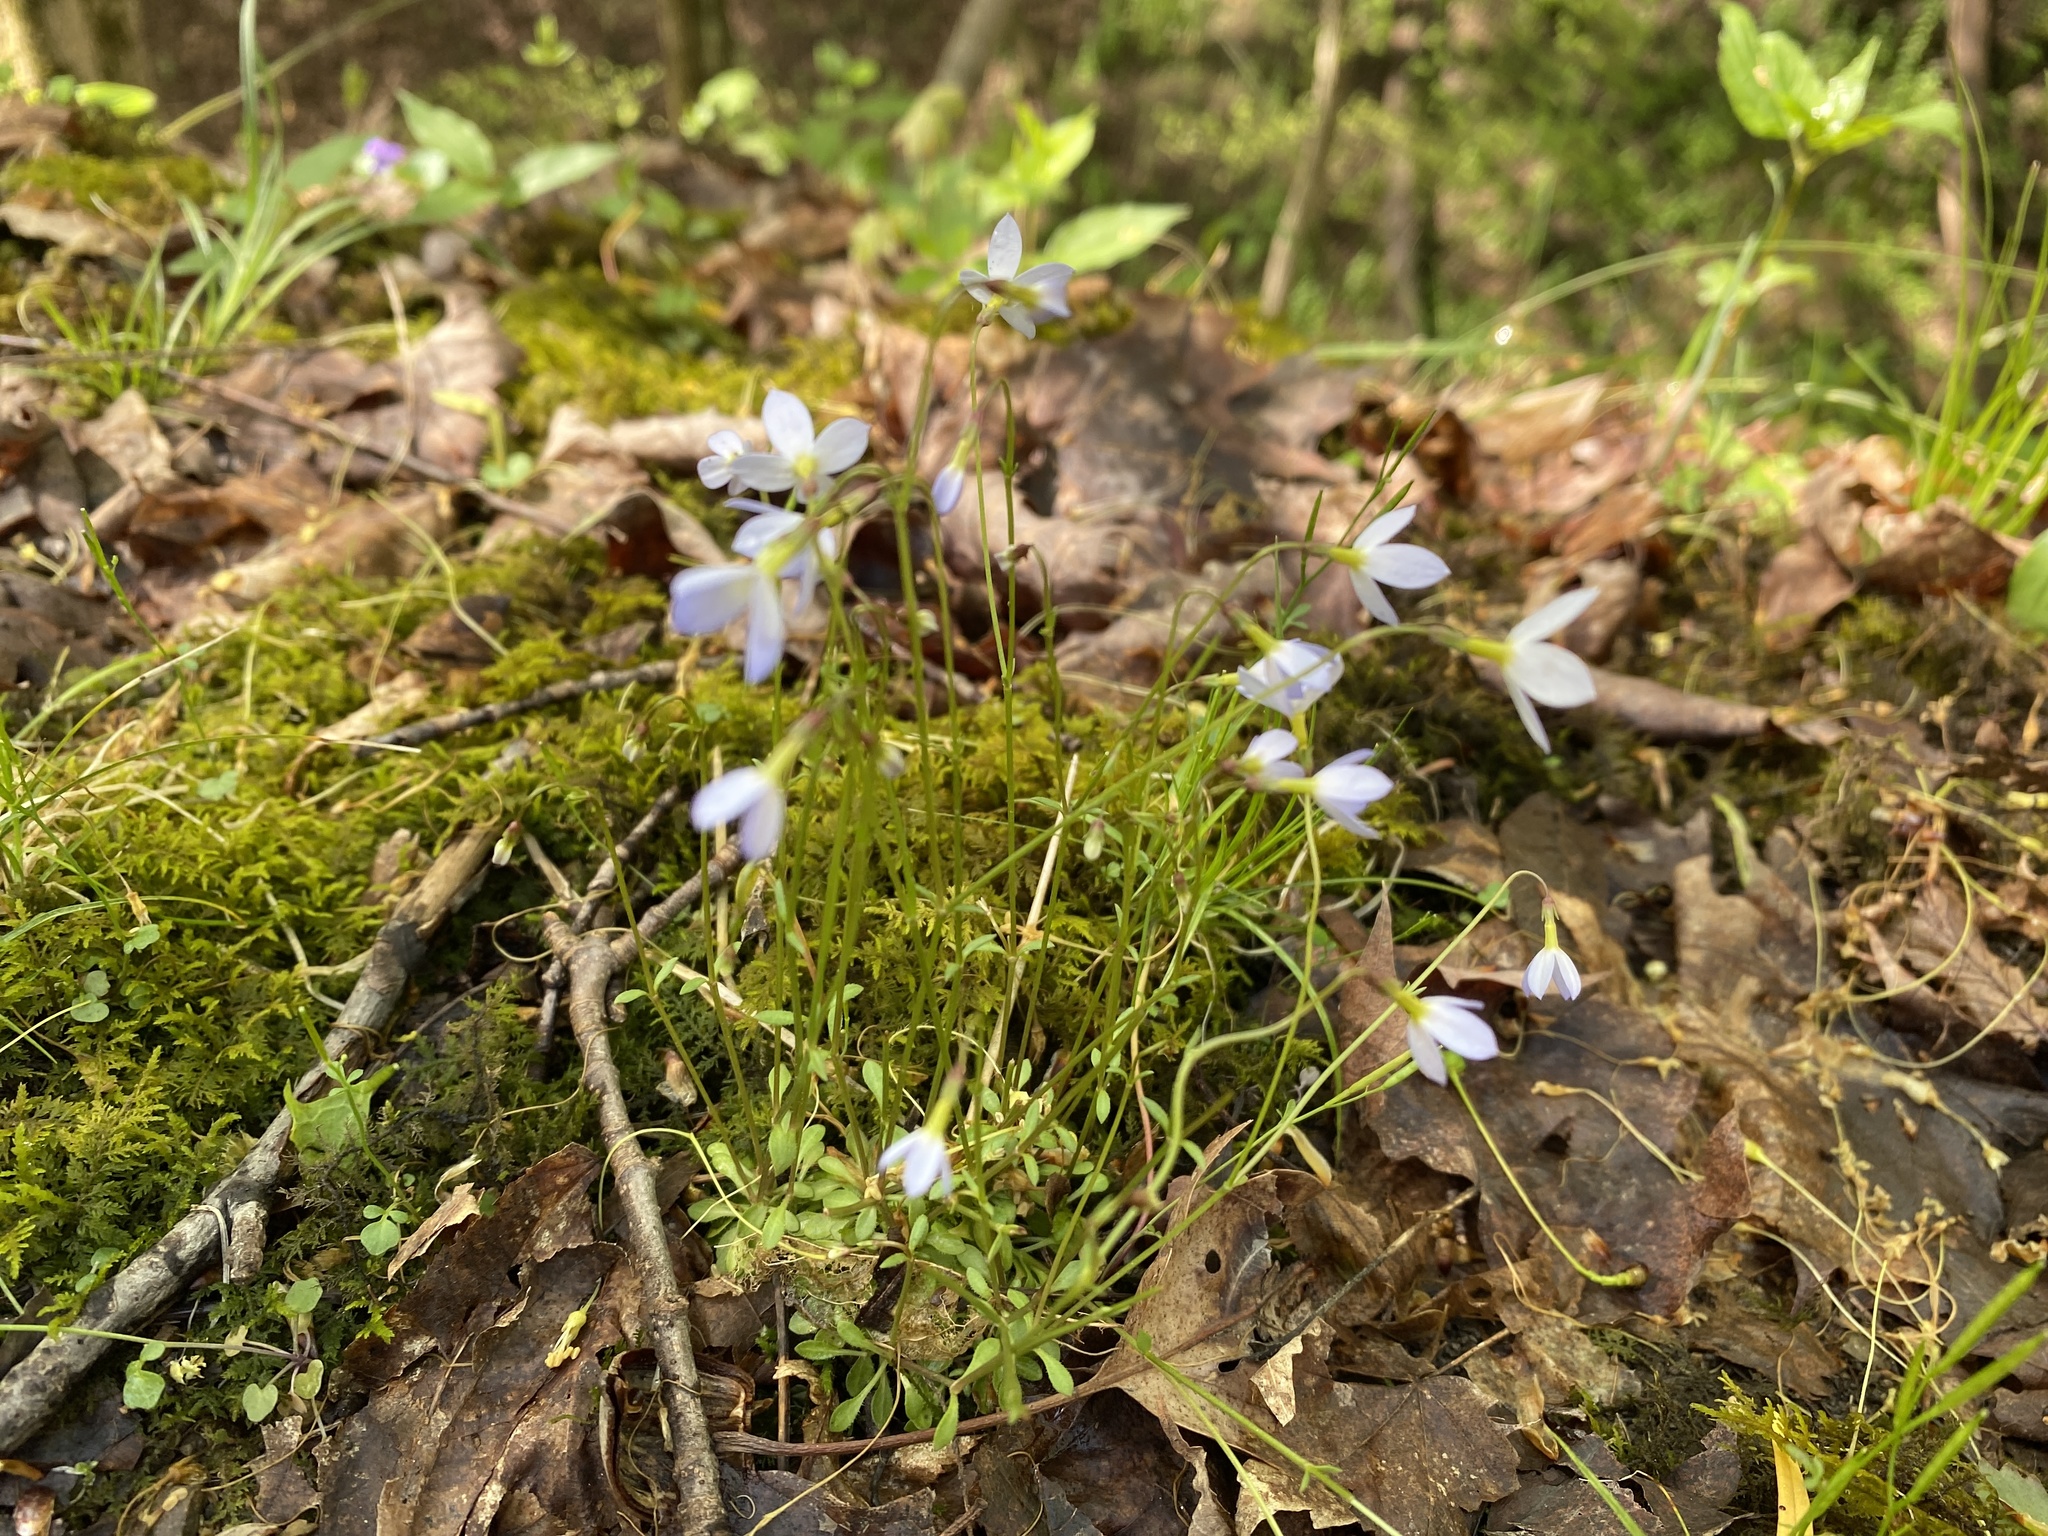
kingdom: Plantae
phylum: Tracheophyta
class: Magnoliopsida
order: Gentianales
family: Rubiaceae
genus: Houstonia
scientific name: Houstonia caerulea
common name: Bluets
